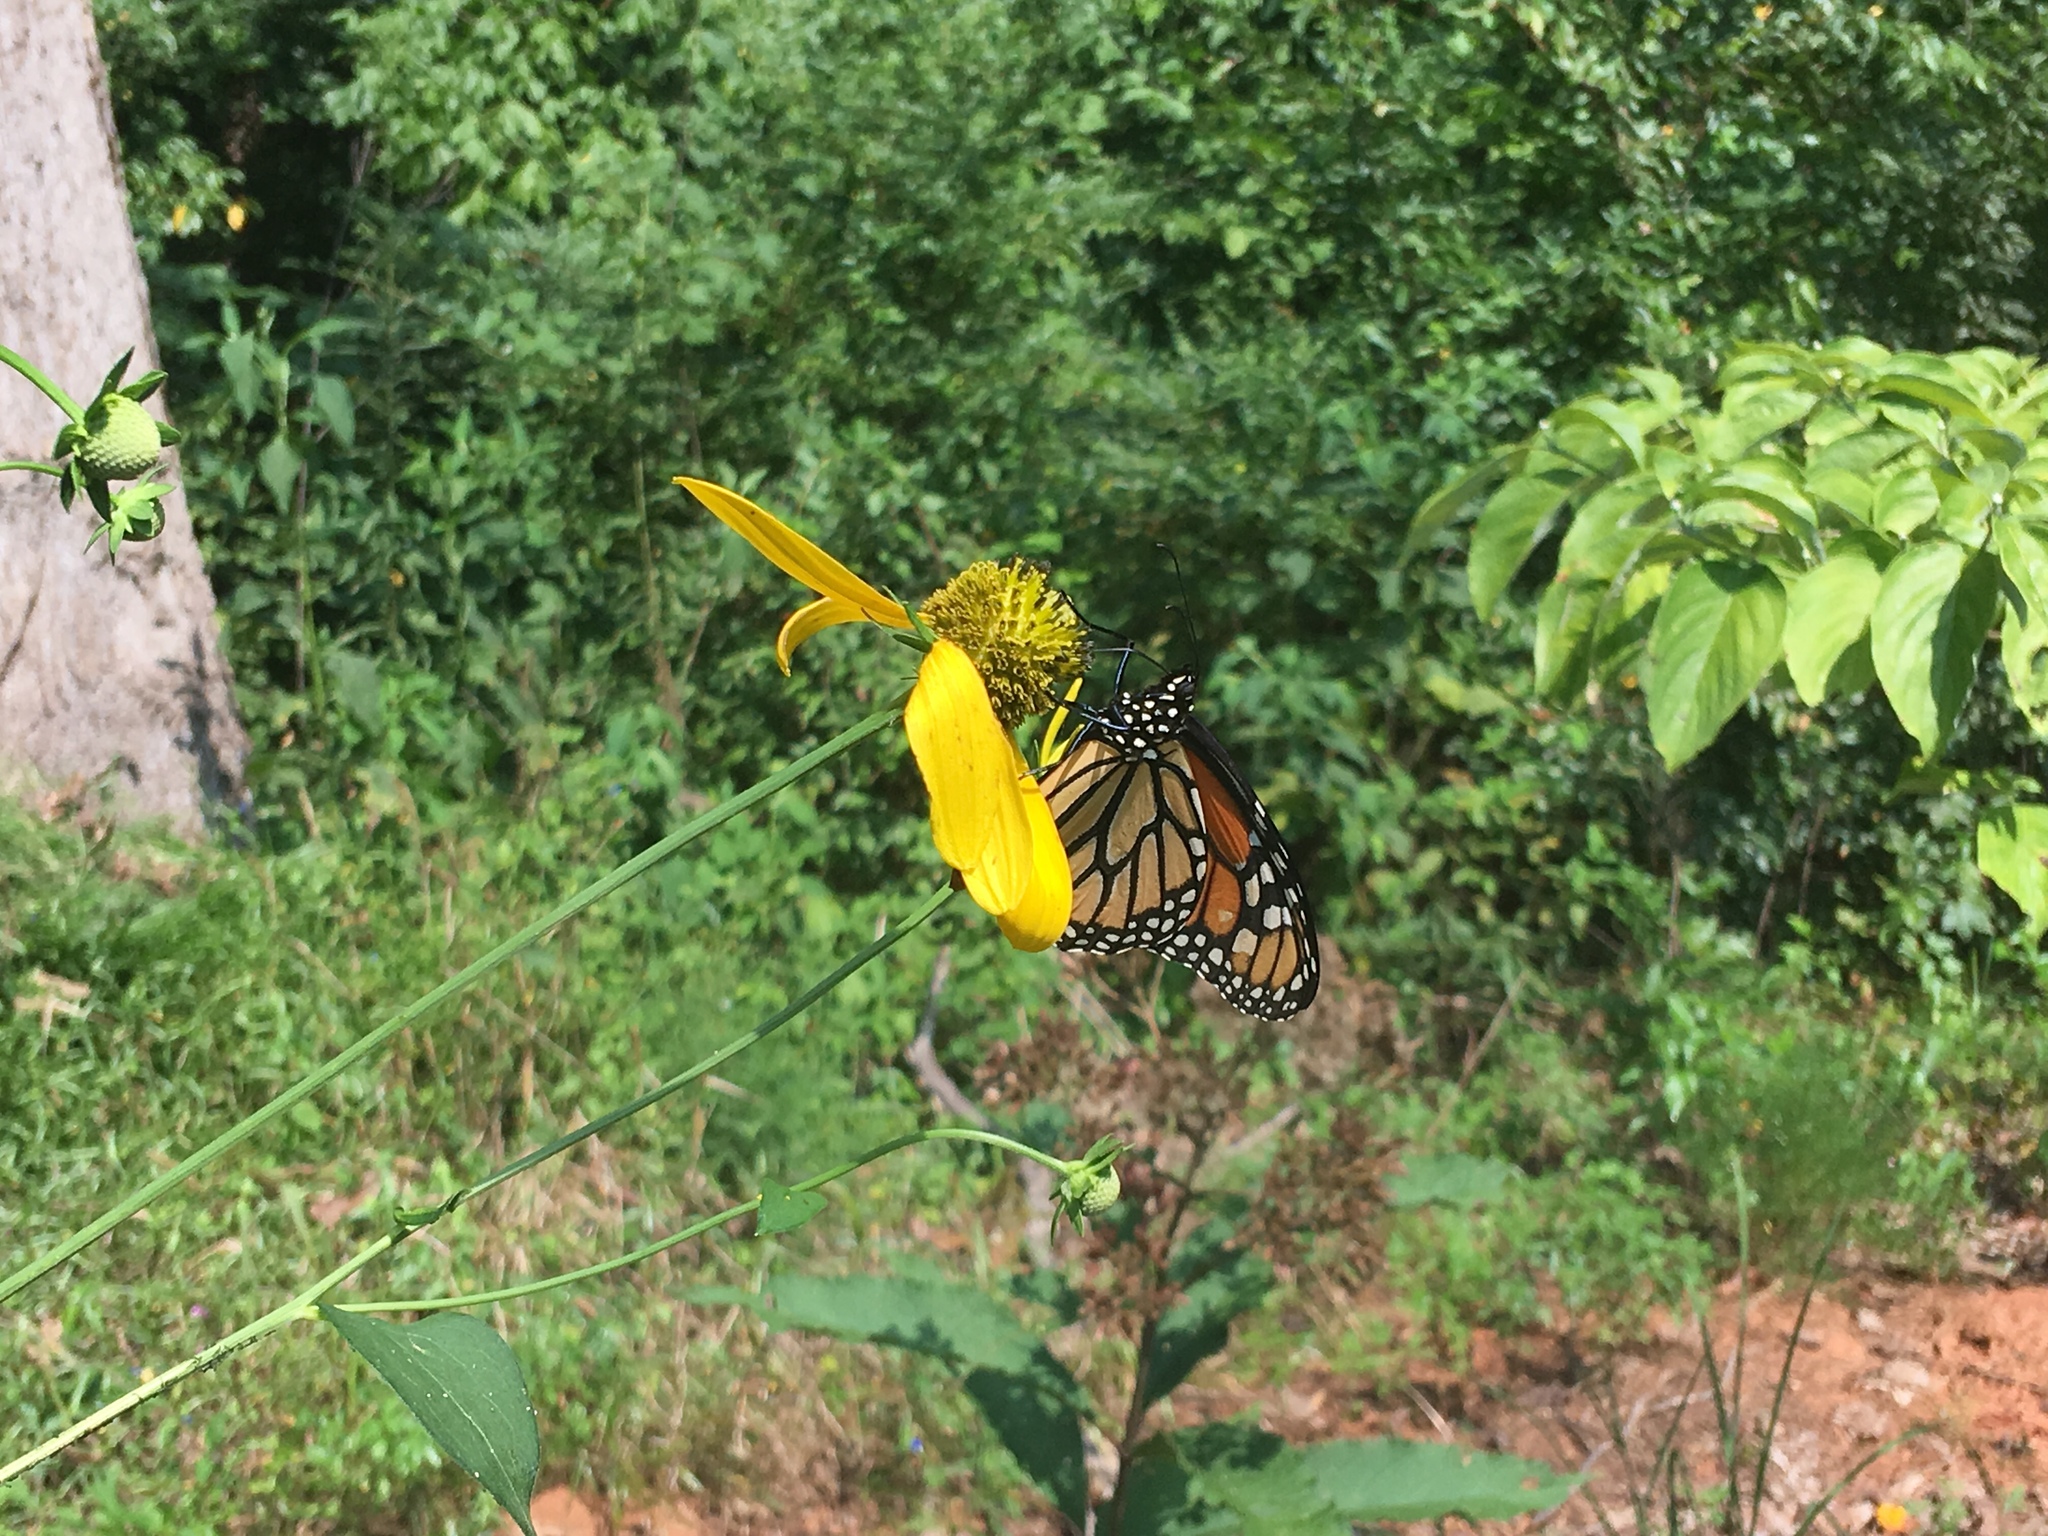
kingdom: Animalia
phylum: Arthropoda
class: Insecta
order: Lepidoptera
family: Nymphalidae
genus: Danaus
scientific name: Danaus plexippus
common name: Monarch
